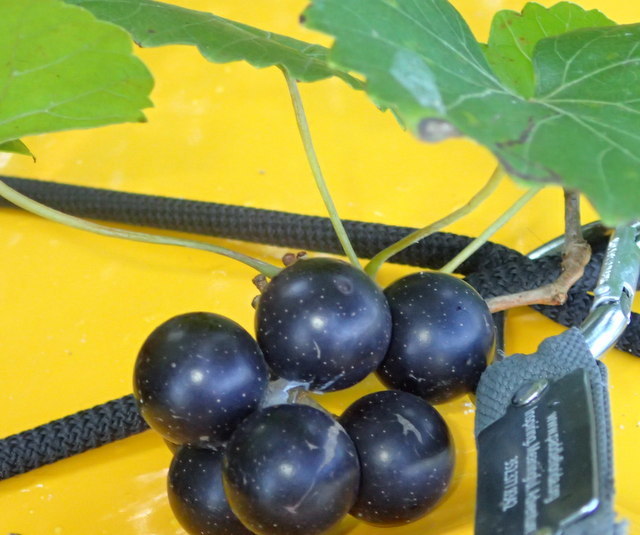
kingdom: Plantae
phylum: Tracheophyta
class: Magnoliopsida
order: Vitales
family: Vitaceae
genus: Vitis
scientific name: Vitis rotundifolia
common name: Muscadine grape
